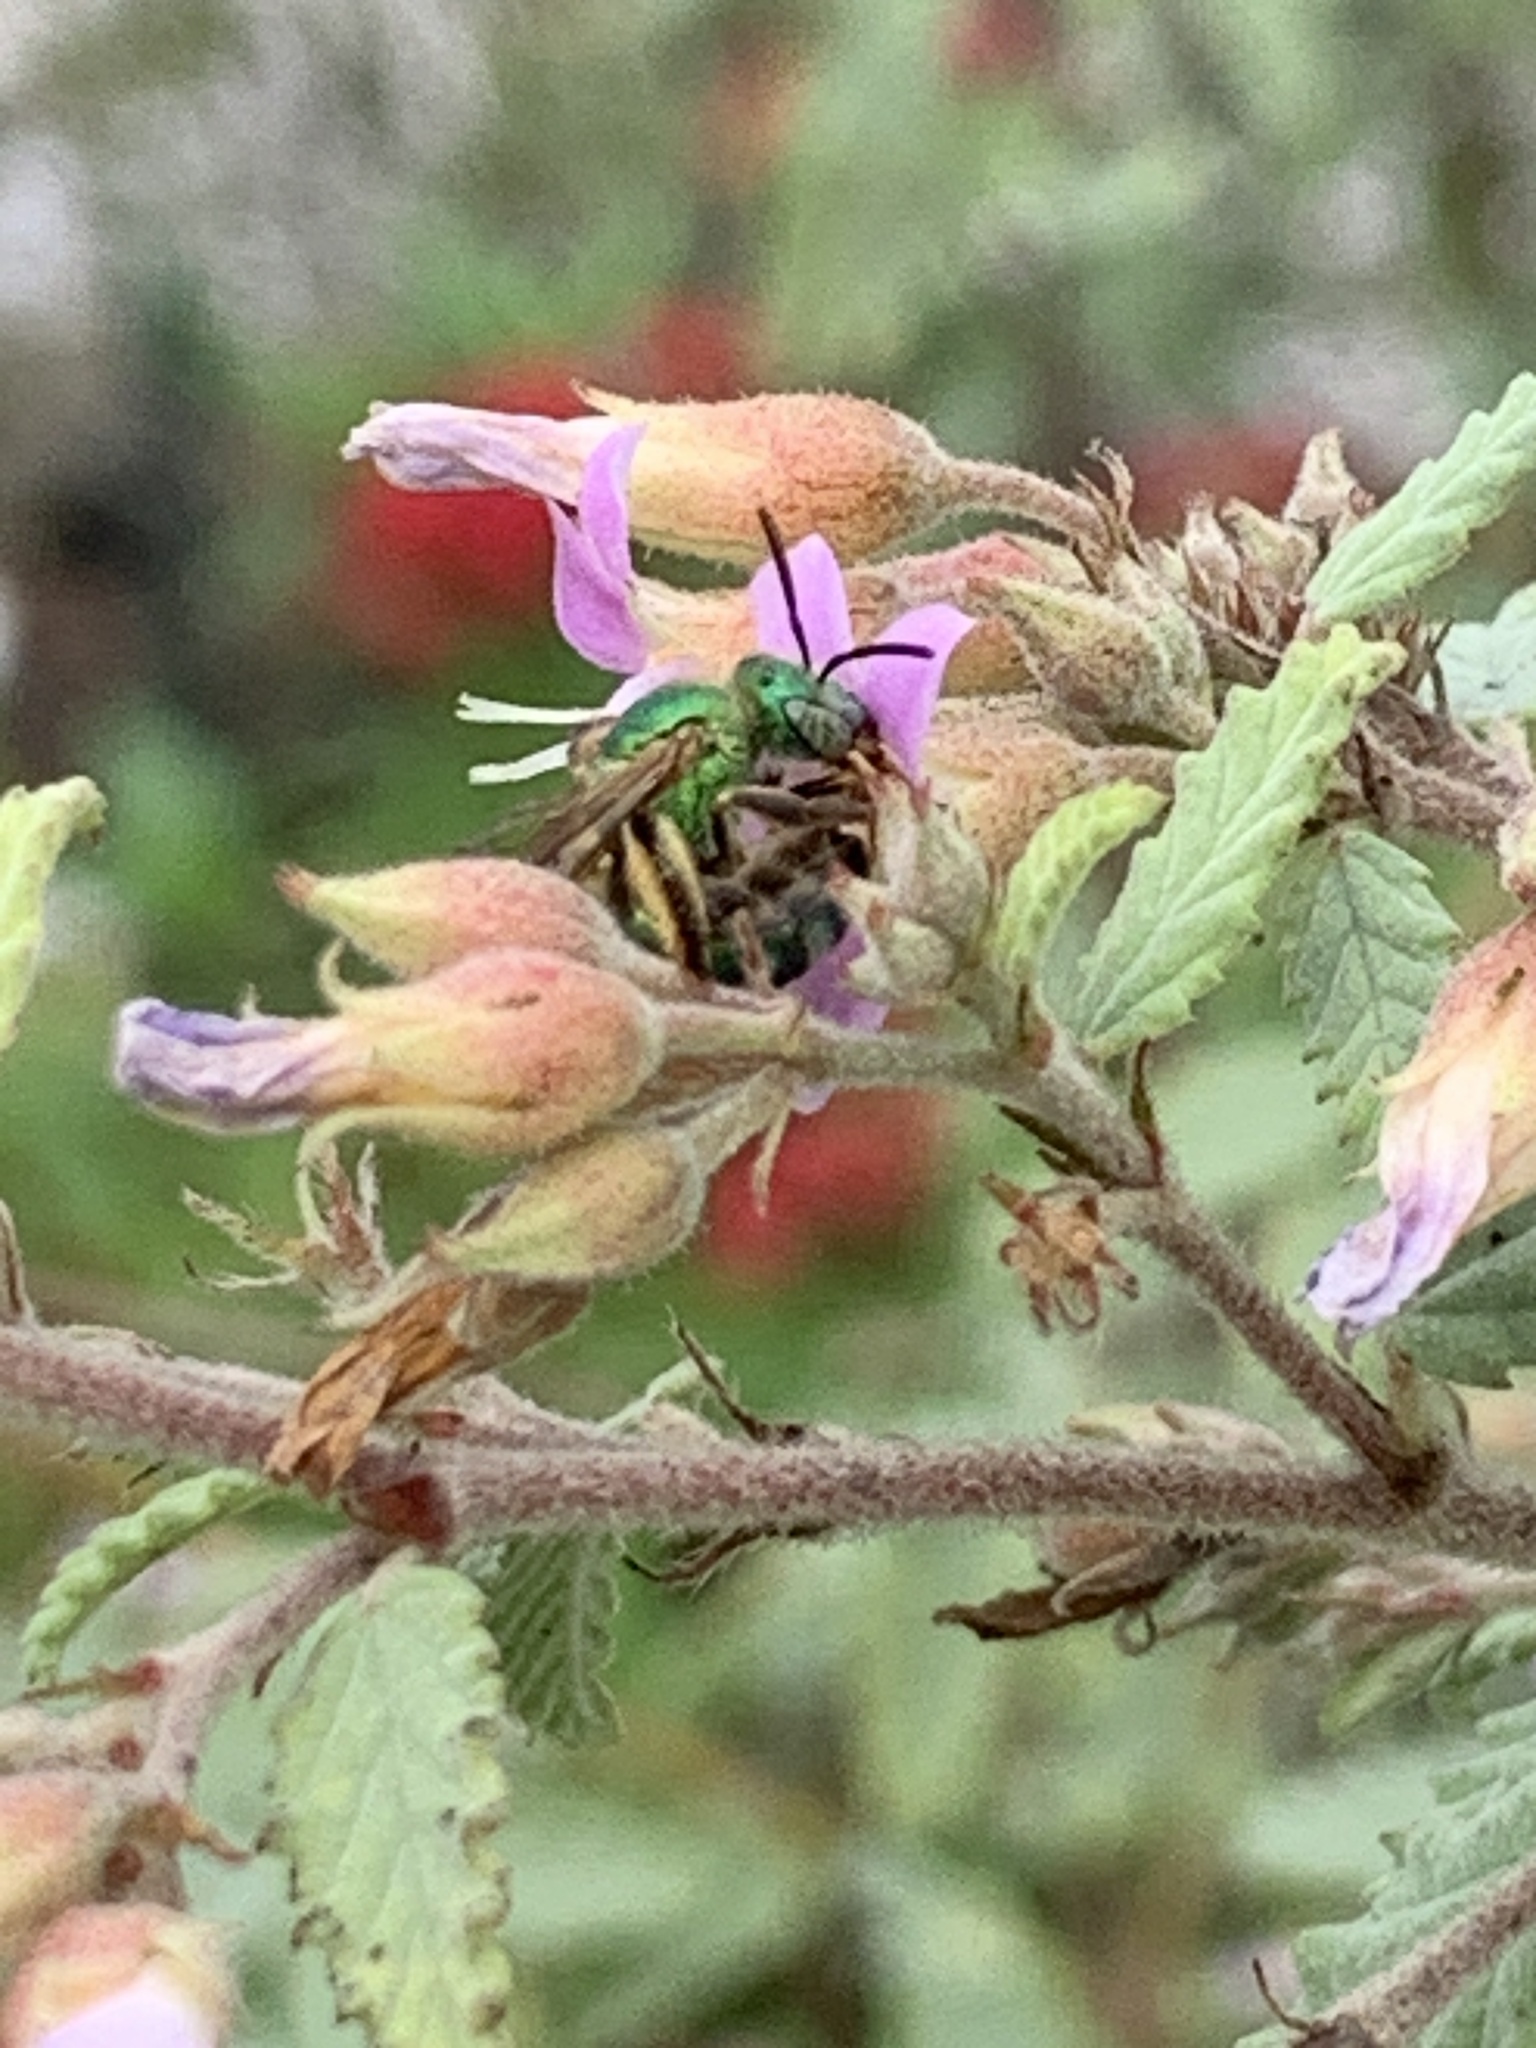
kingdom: Animalia
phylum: Arthropoda
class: Insecta
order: Hymenoptera
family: Halictidae
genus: Agapostemon
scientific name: Agapostemon splendens
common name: Brown-winged striped sweat bee
